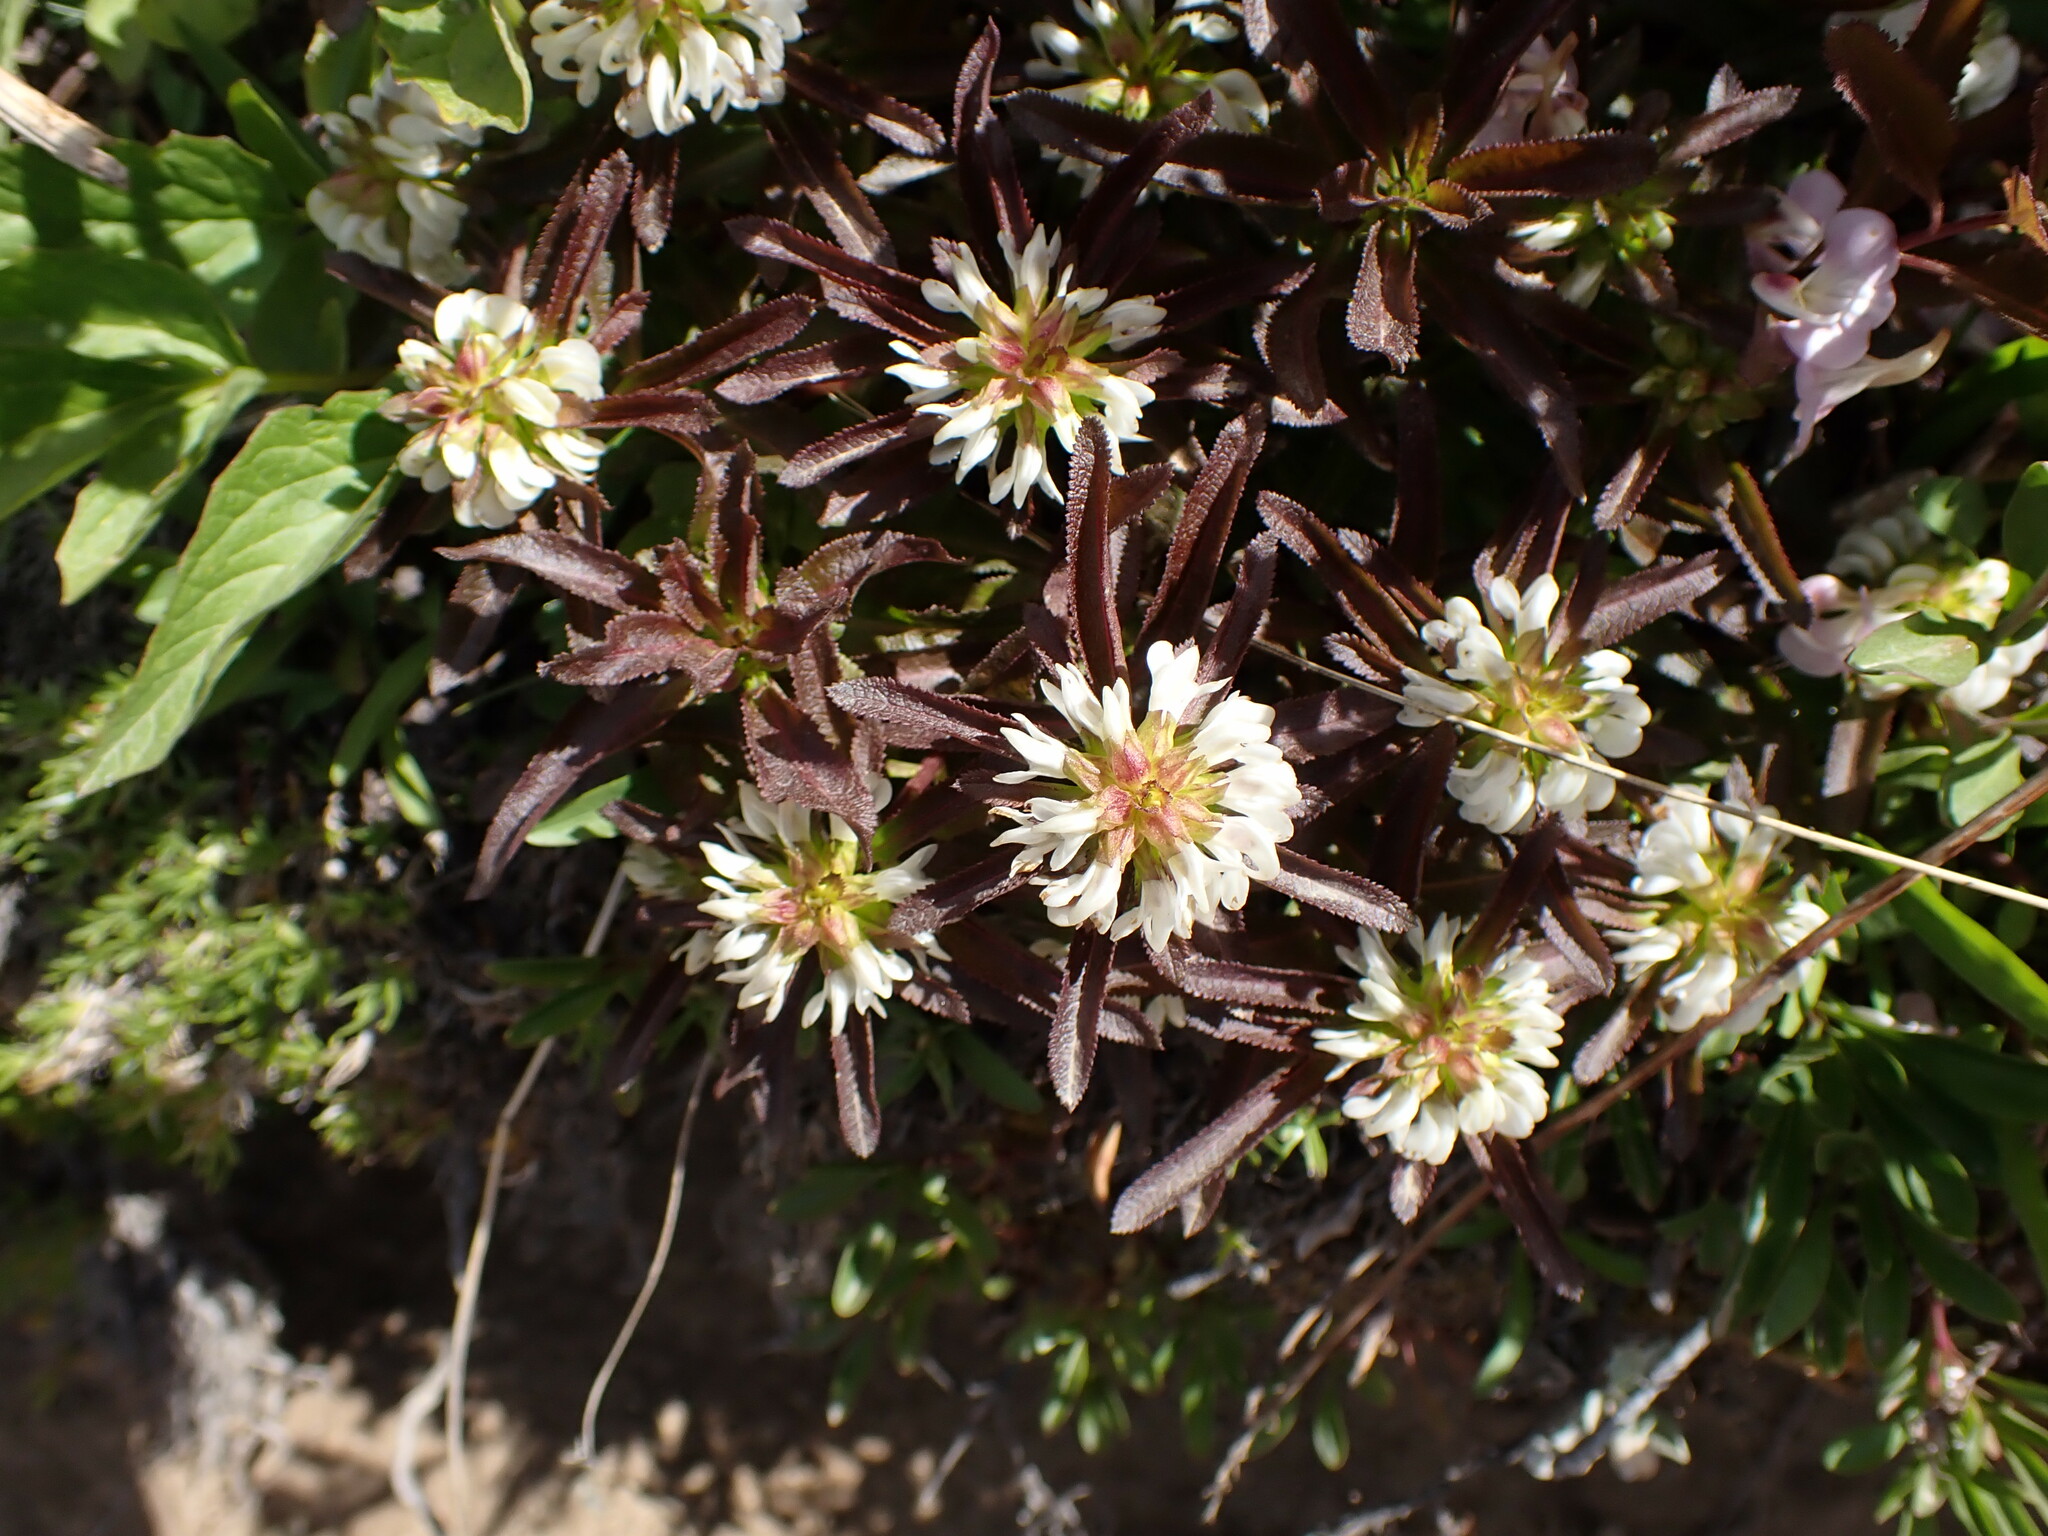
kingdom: Plantae
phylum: Tracheophyta
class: Magnoliopsida
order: Lamiales
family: Orobanchaceae
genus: Pedicularis
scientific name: Pedicularis racemosa
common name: Leafy lousewort
